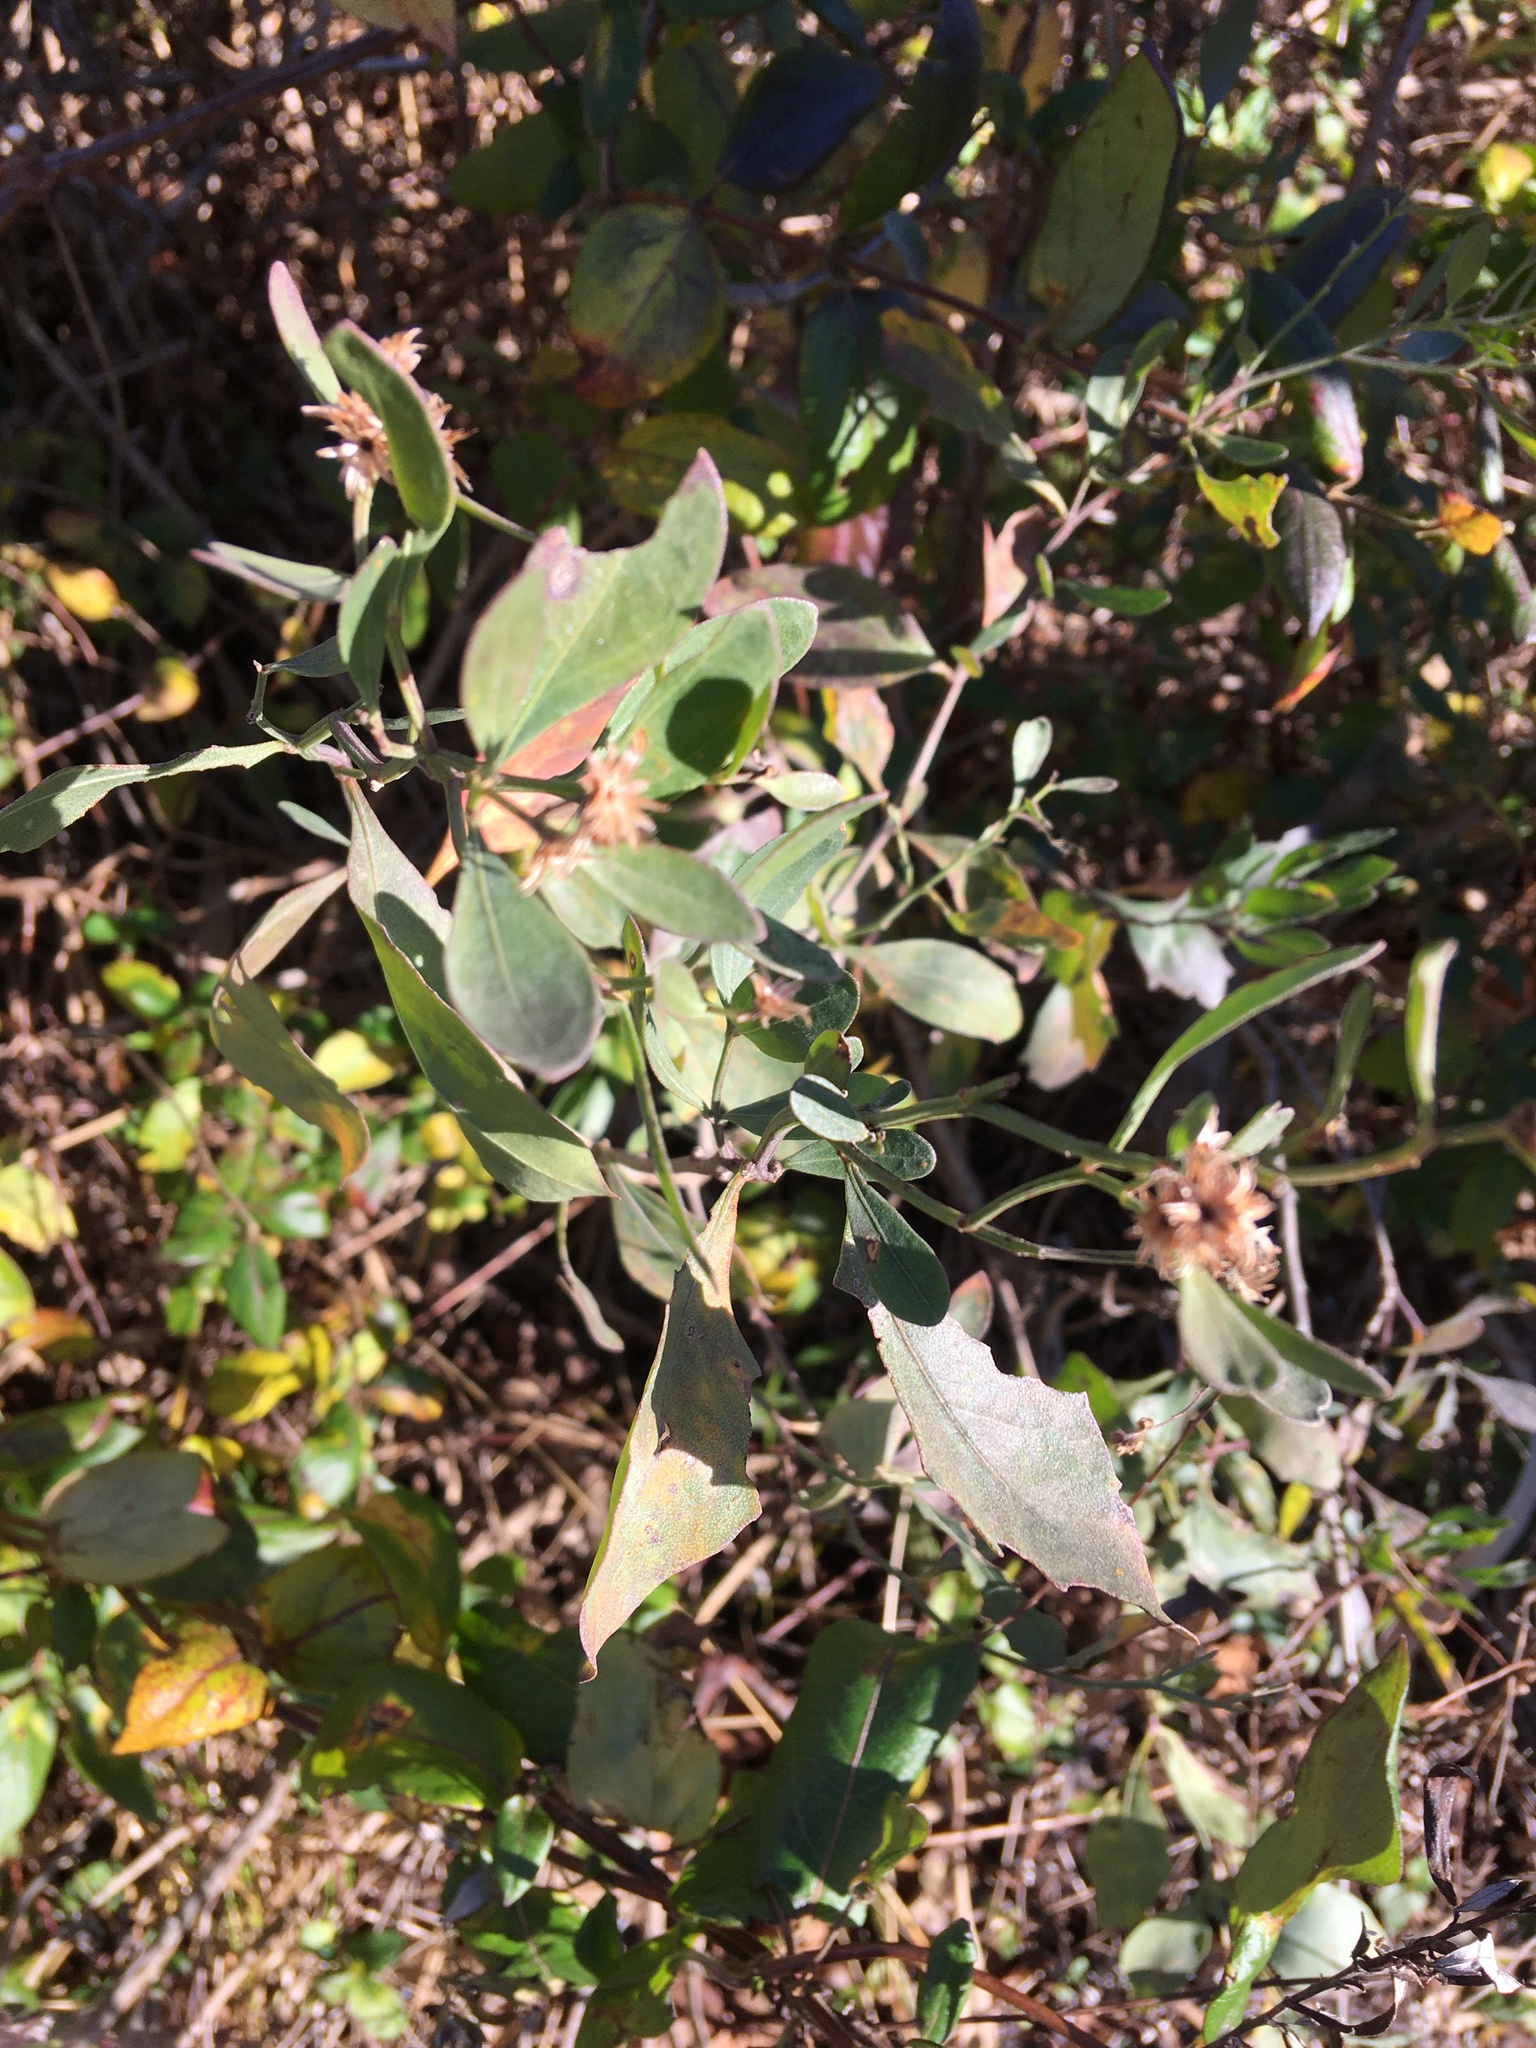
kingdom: Plantae
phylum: Tracheophyta
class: Magnoliopsida
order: Asterales
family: Asteraceae
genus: Baccharis
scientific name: Baccharis halimifolia
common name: Eastern baccharis
